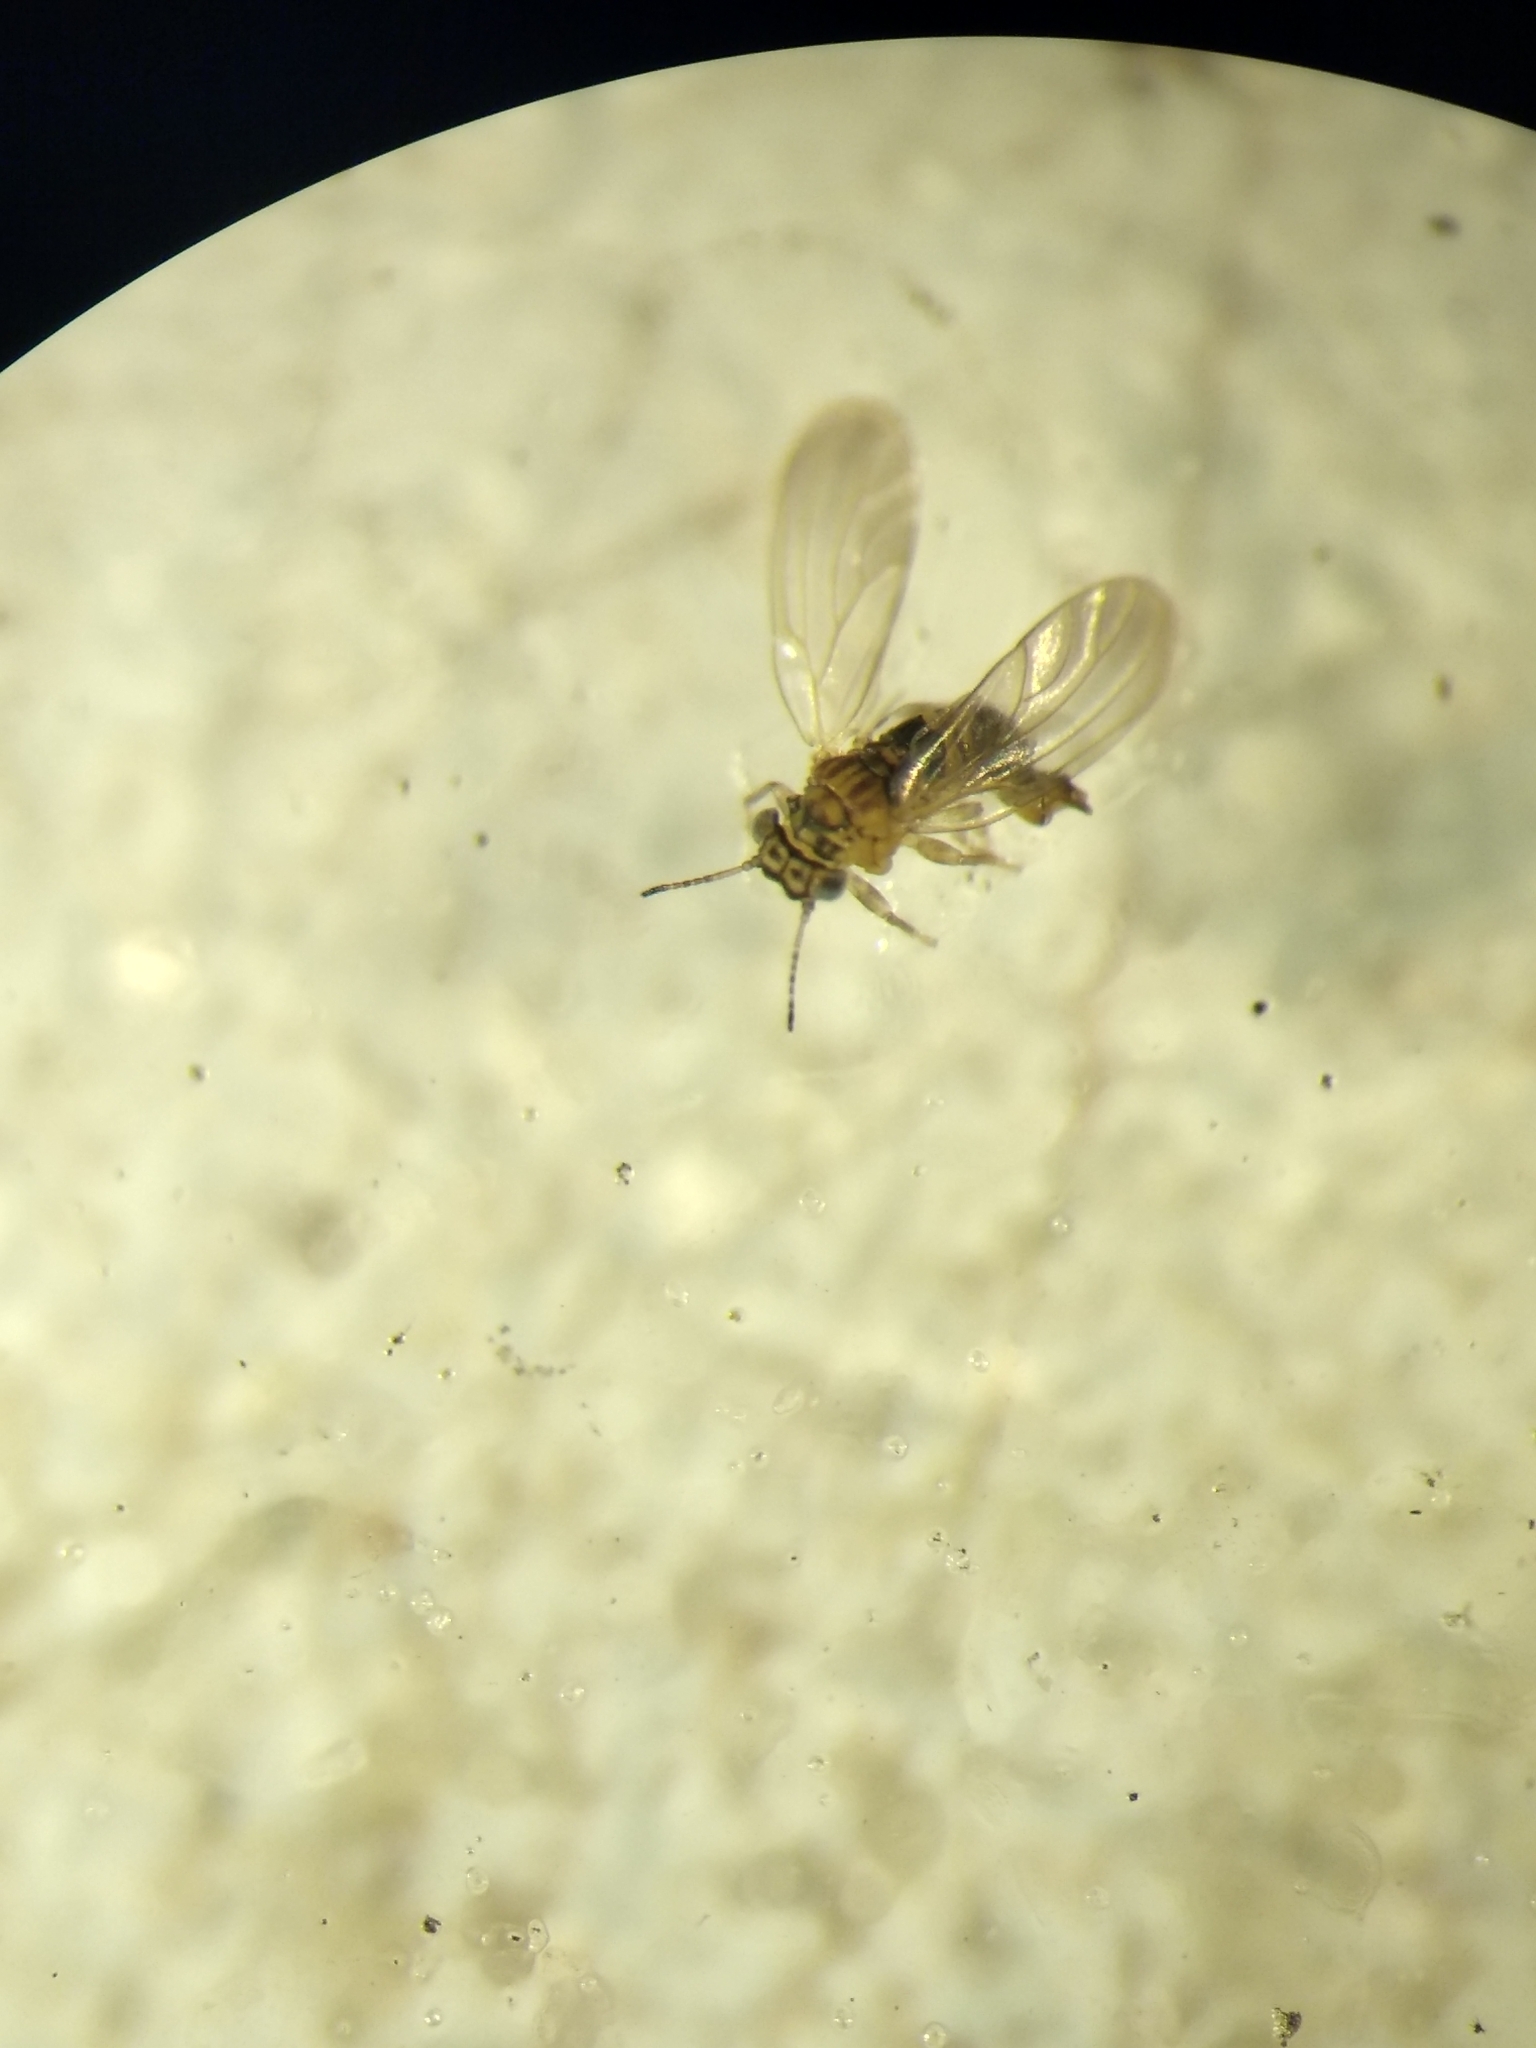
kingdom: Animalia
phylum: Arthropoda
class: Insecta
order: Hemiptera
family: Aphalaridae
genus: Blastopsylla
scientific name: Blastopsylla occidentalis
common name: Reg gum lerp psyllid
